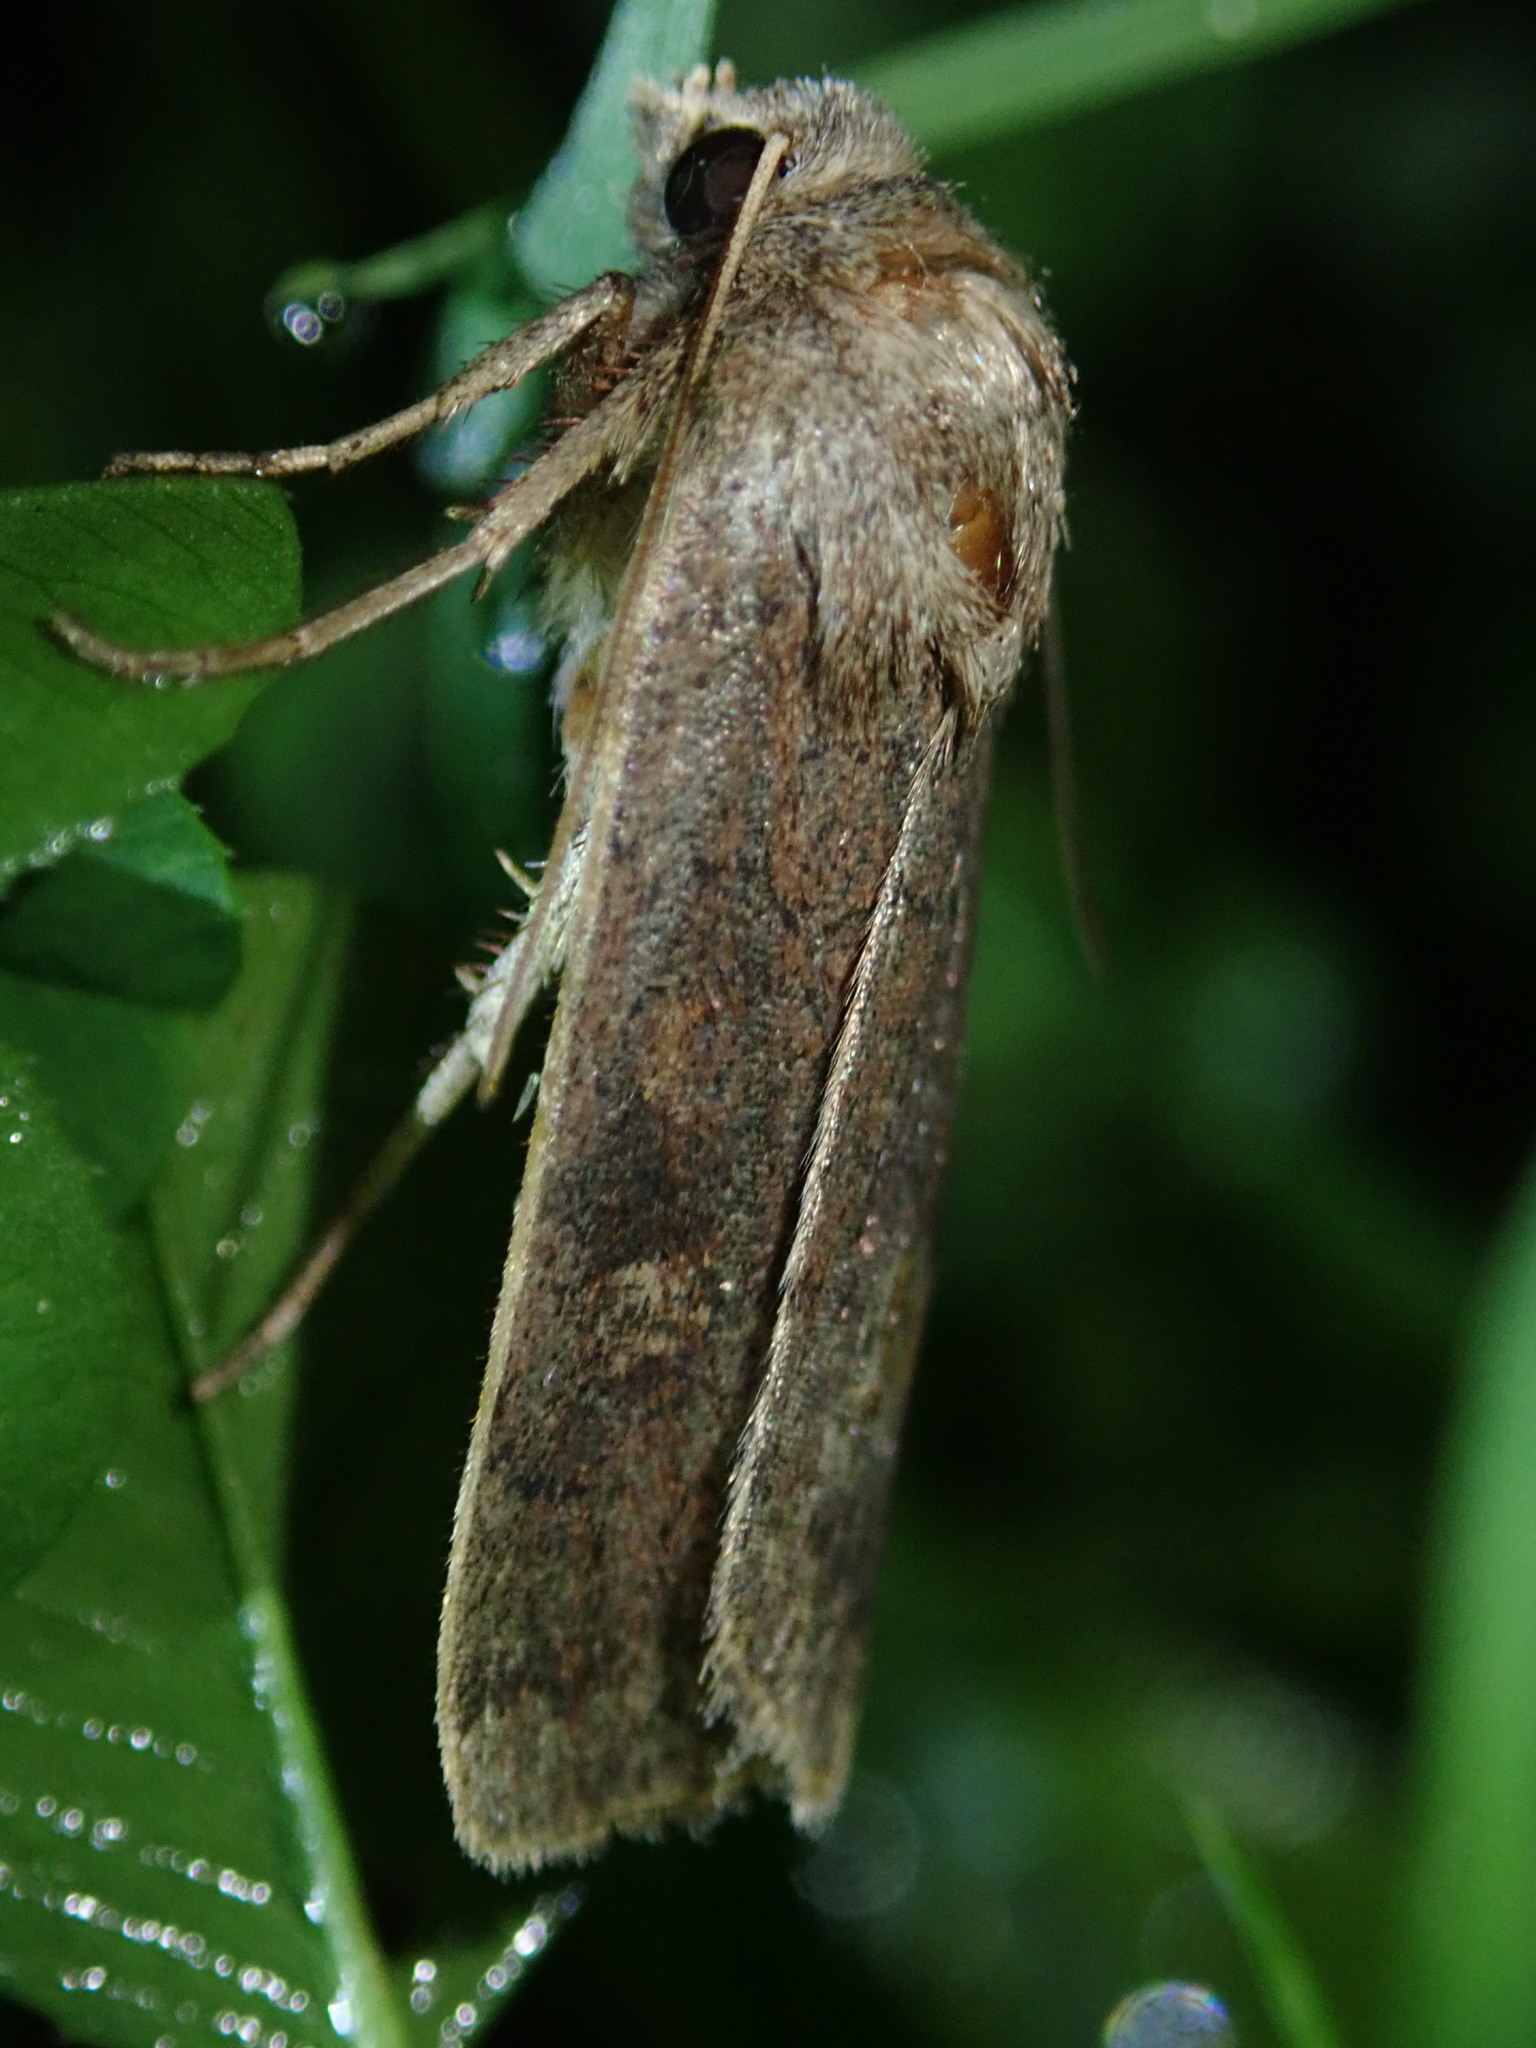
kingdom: Animalia
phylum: Arthropoda
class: Insecta
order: Lepidoptera
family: Noctuidae
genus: Xestia
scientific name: Xestia xanthographa
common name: Square-spot rustic
